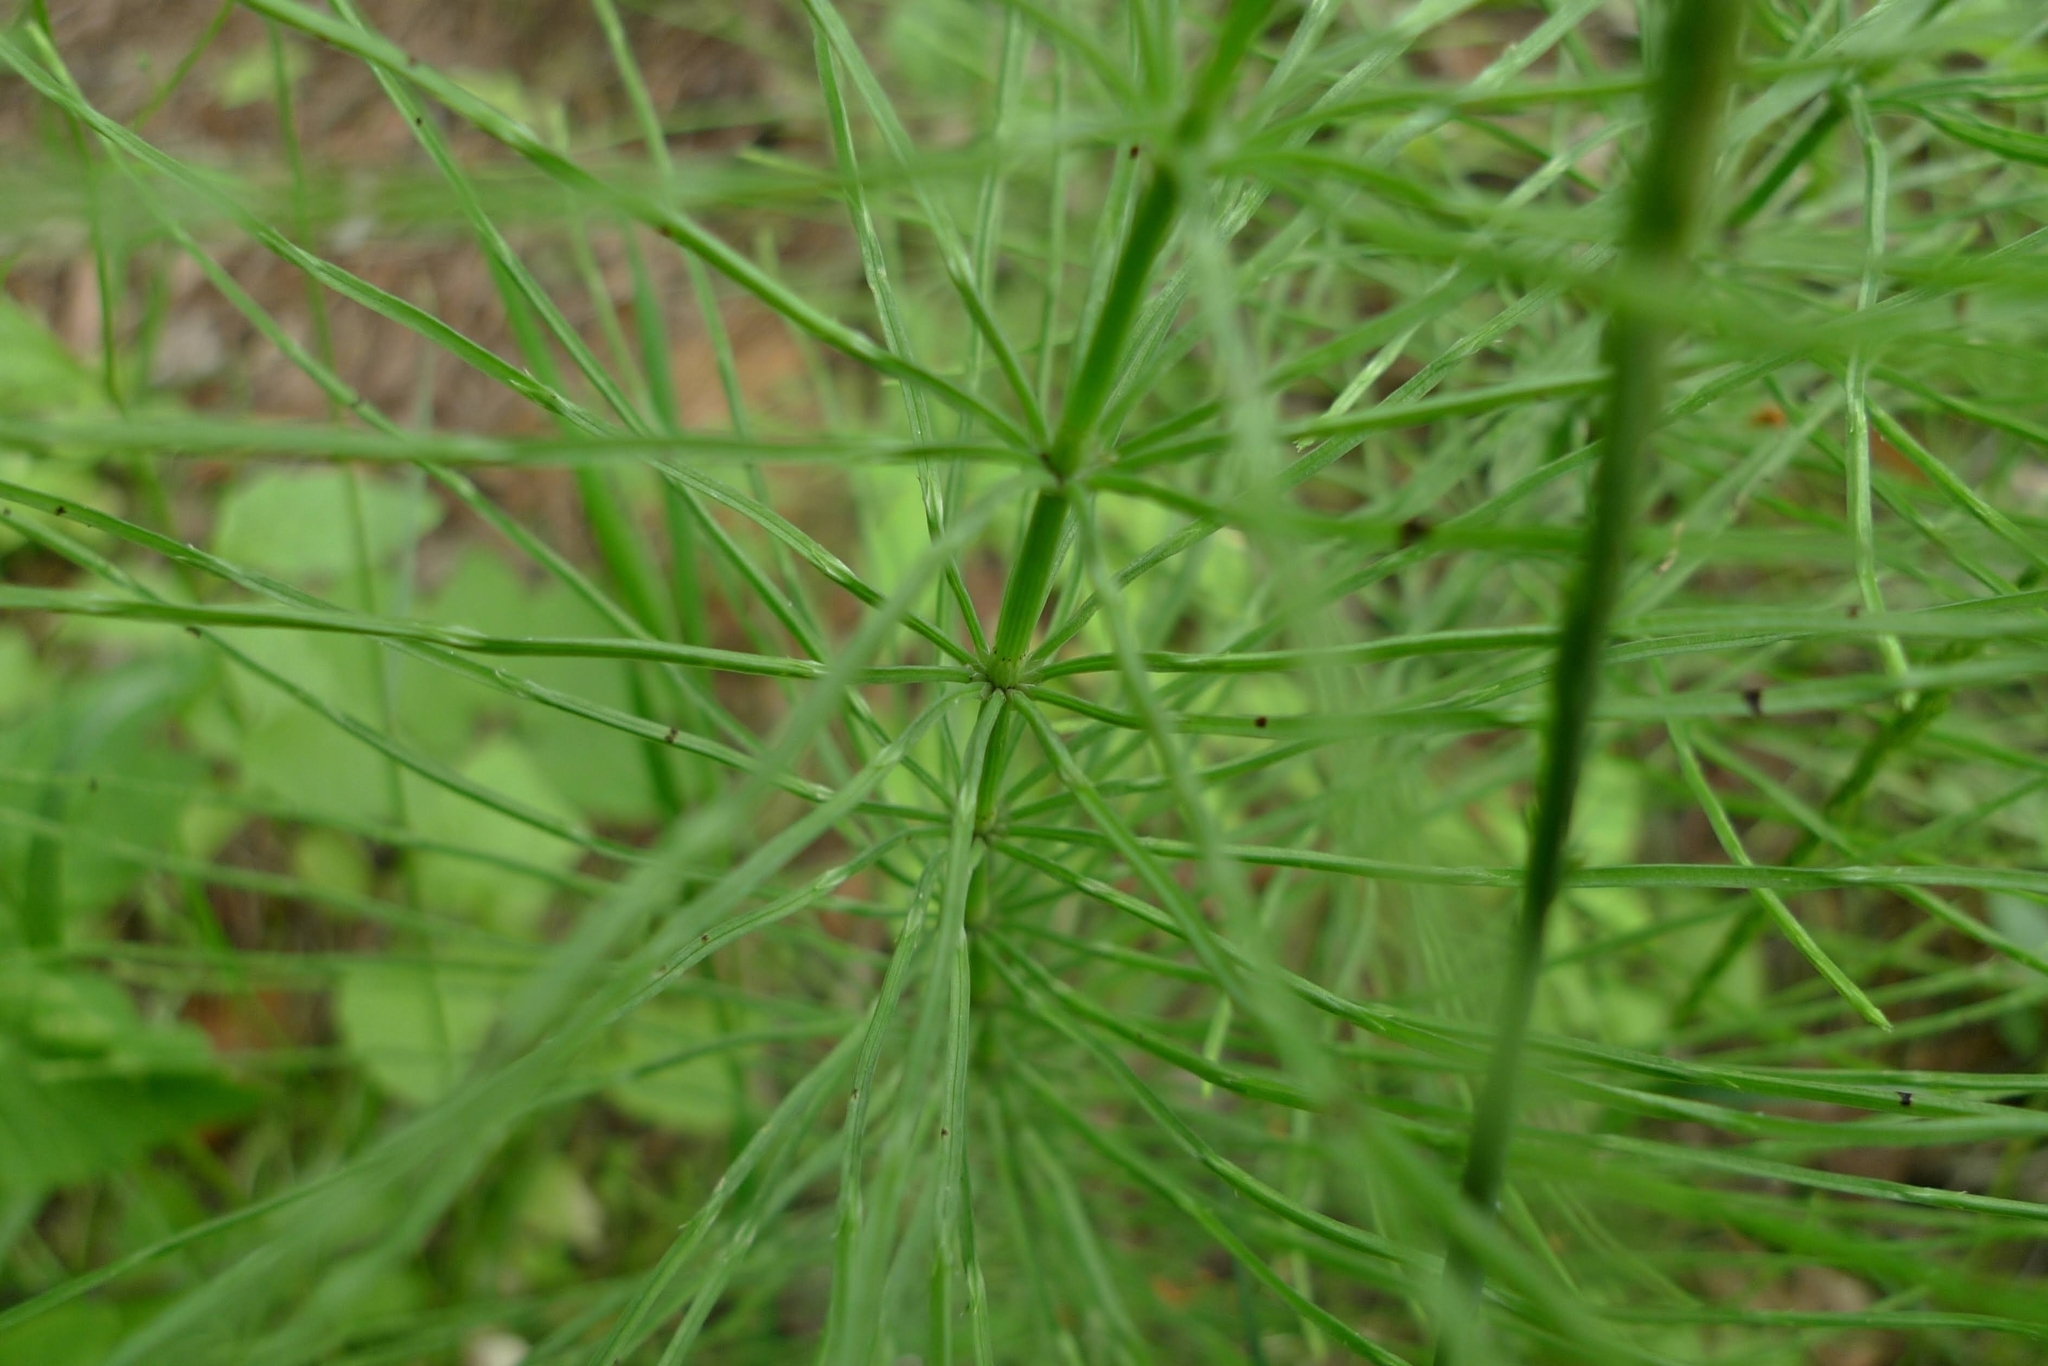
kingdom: Plantae
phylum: Tracheophyta
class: Polypodiopsida
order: Equisetales
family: Equisetaceae
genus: Equisetum
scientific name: Equisetum arvense
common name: Field horsetail
